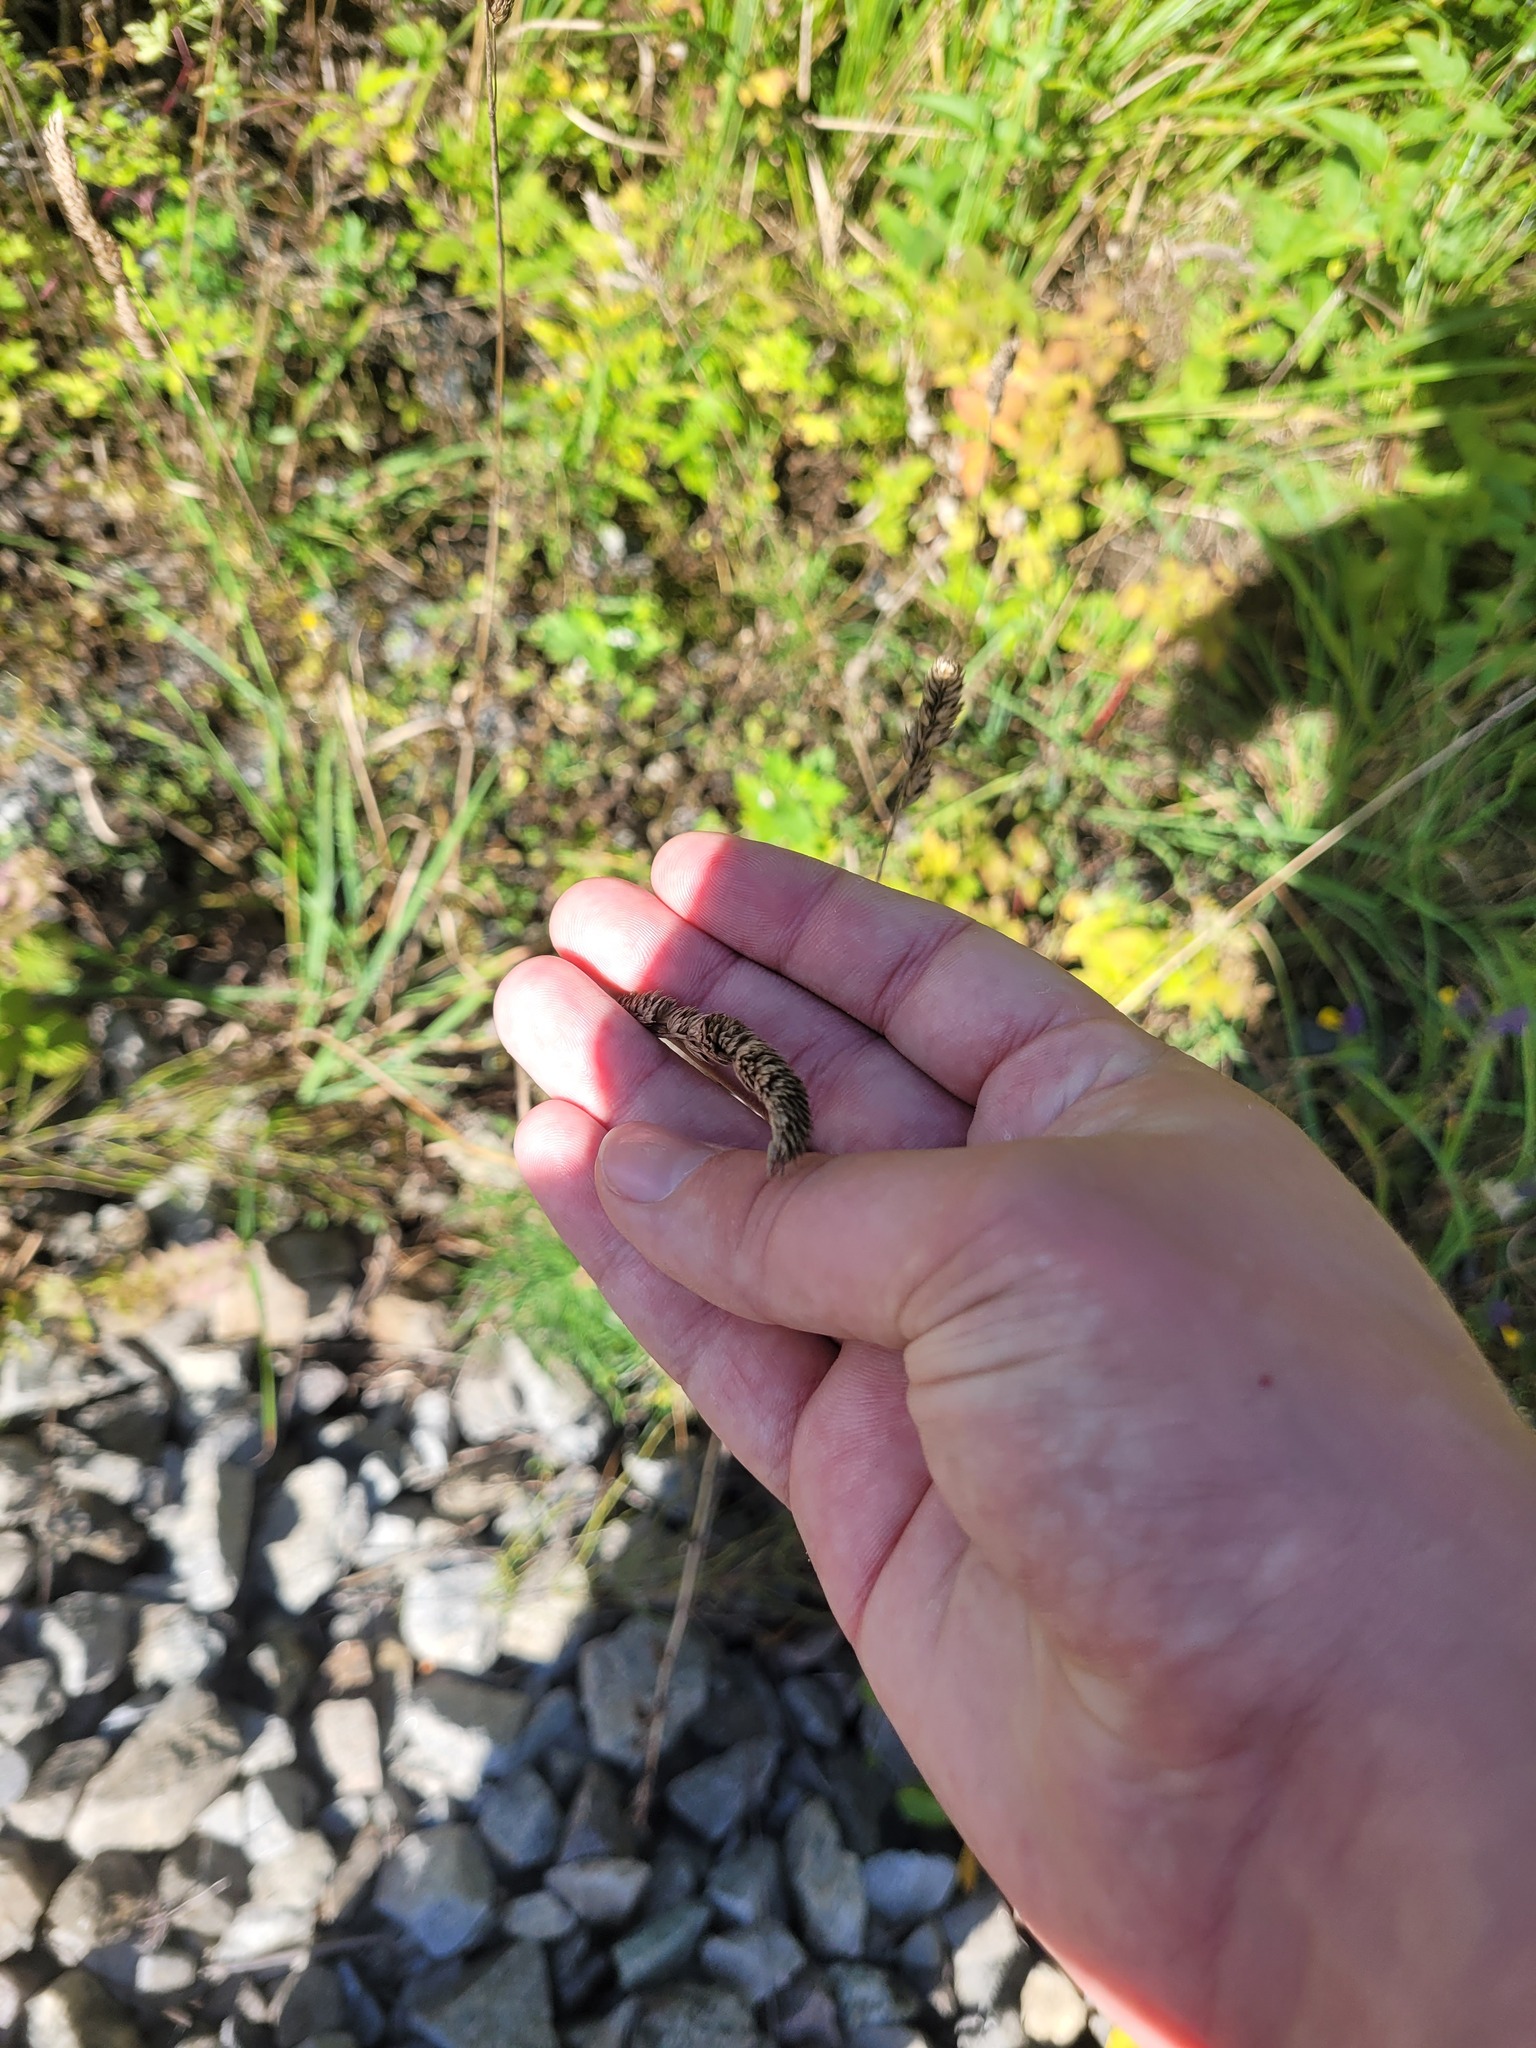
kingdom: Plantae
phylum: Tracheophyta
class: Liliopsida
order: Poales
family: Poaceae
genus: Dactylis
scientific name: Dactylis glomerata
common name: Orchardgrass
